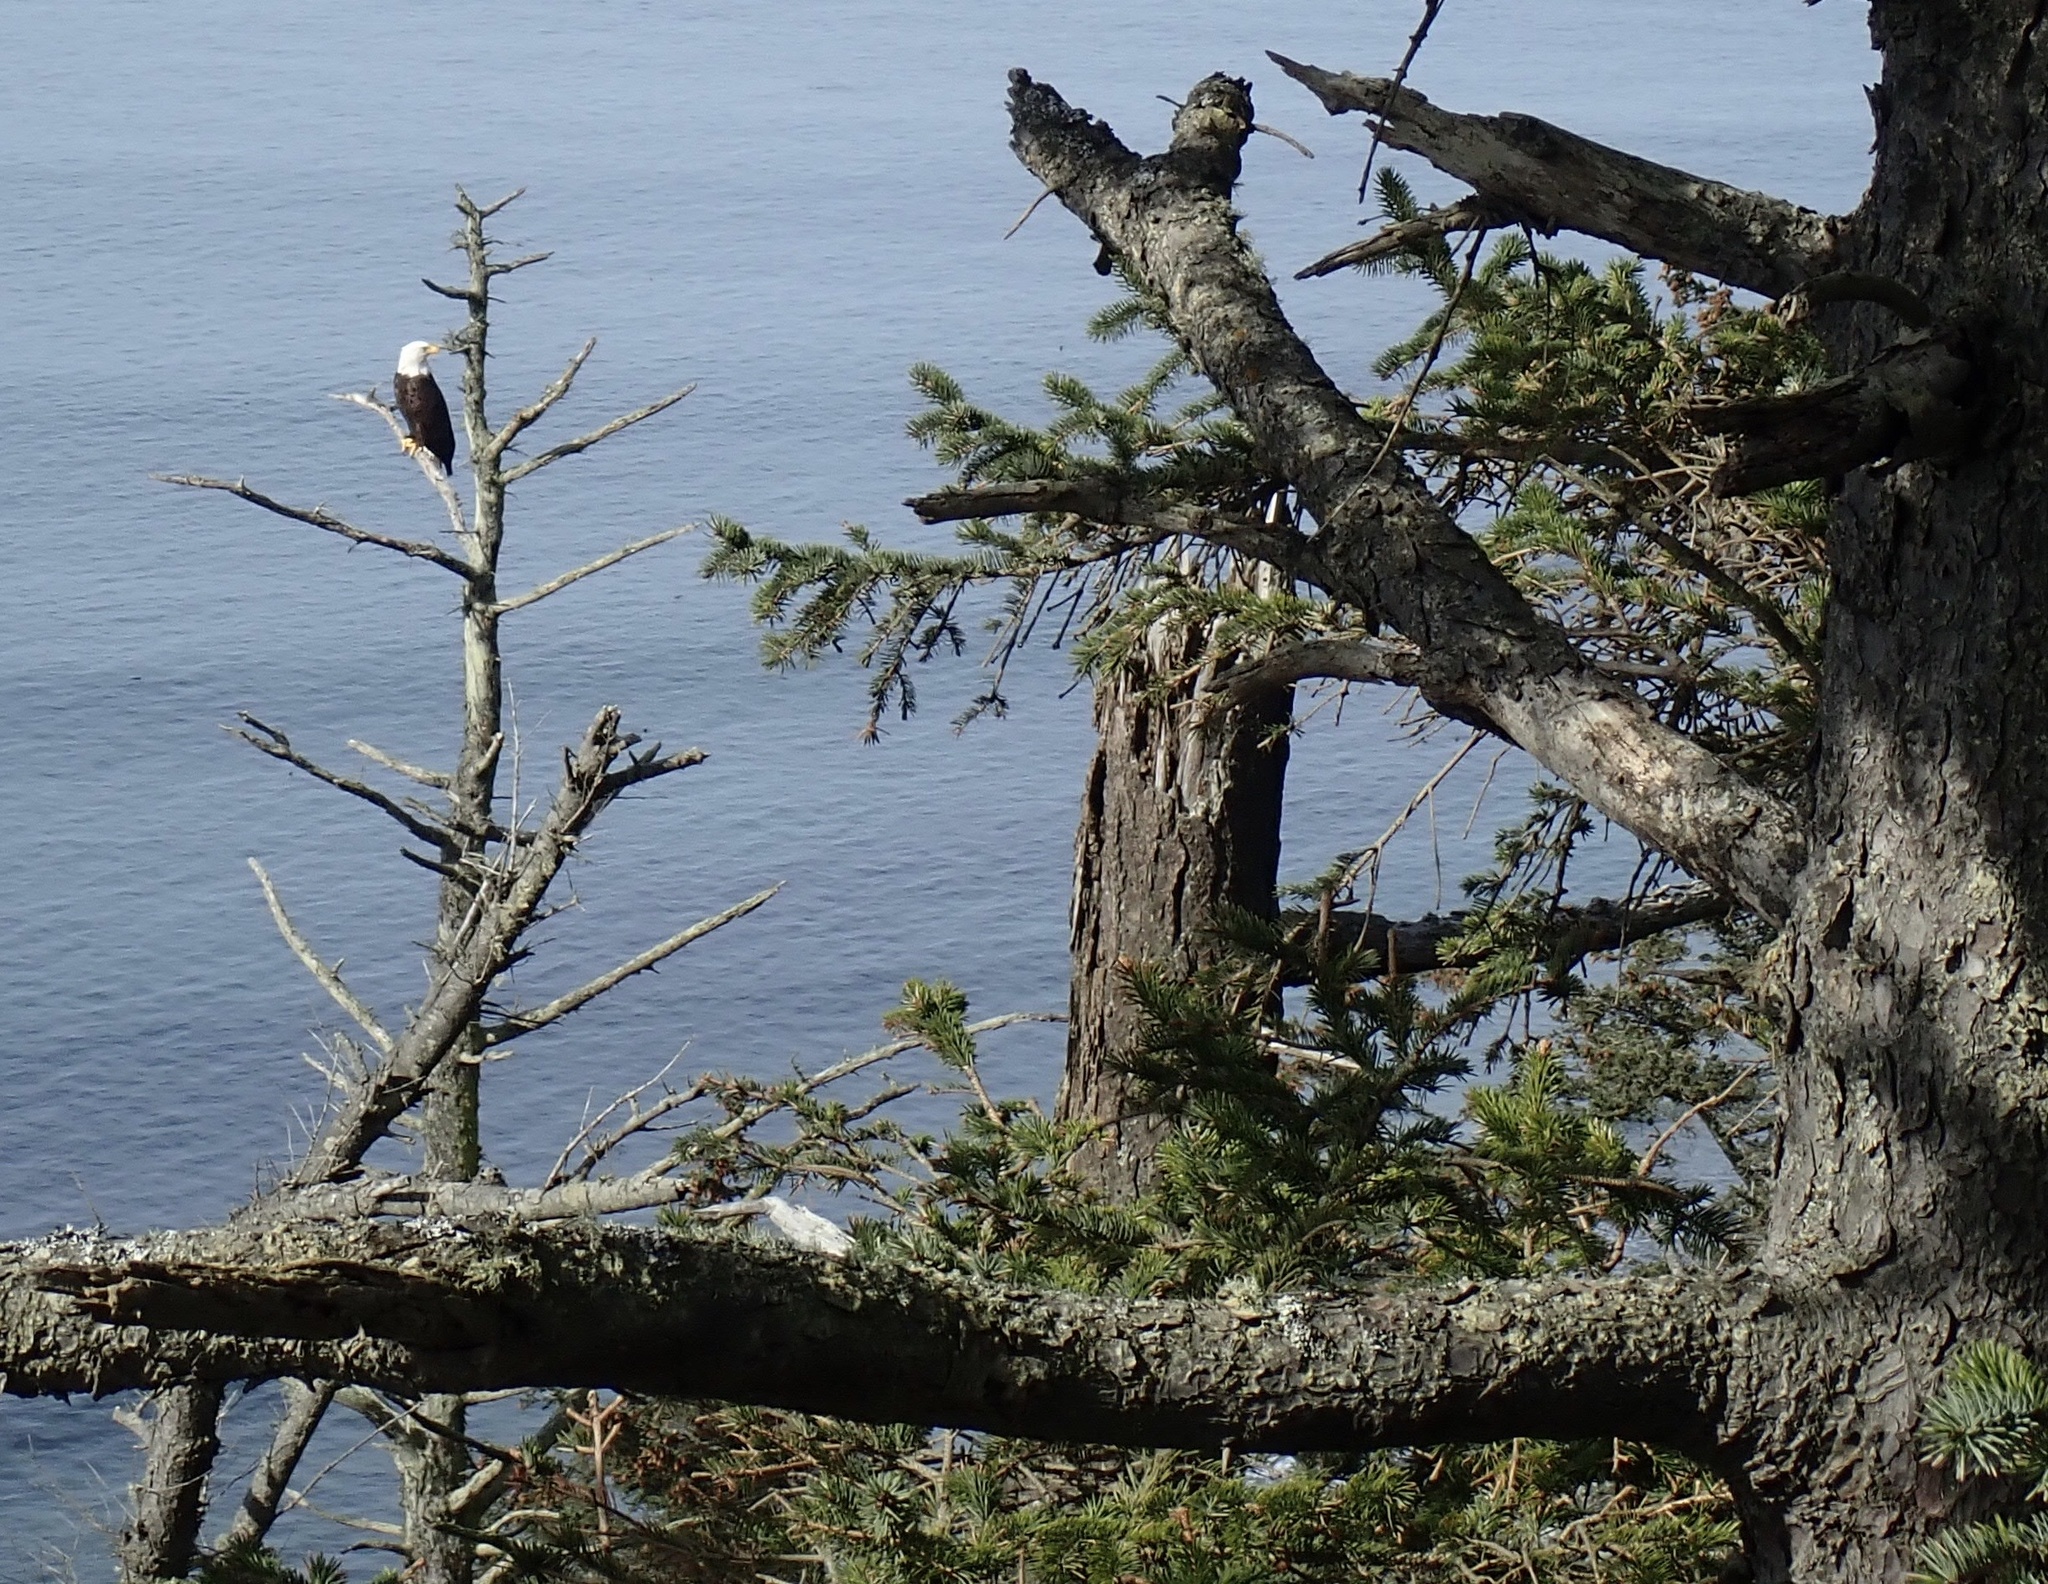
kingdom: Animalia
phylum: Chordata
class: Aves
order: Accipitriformes
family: Accipitridae
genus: Haliaeetus
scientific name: Haliaeetus leucocephalus
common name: Bald eagle
